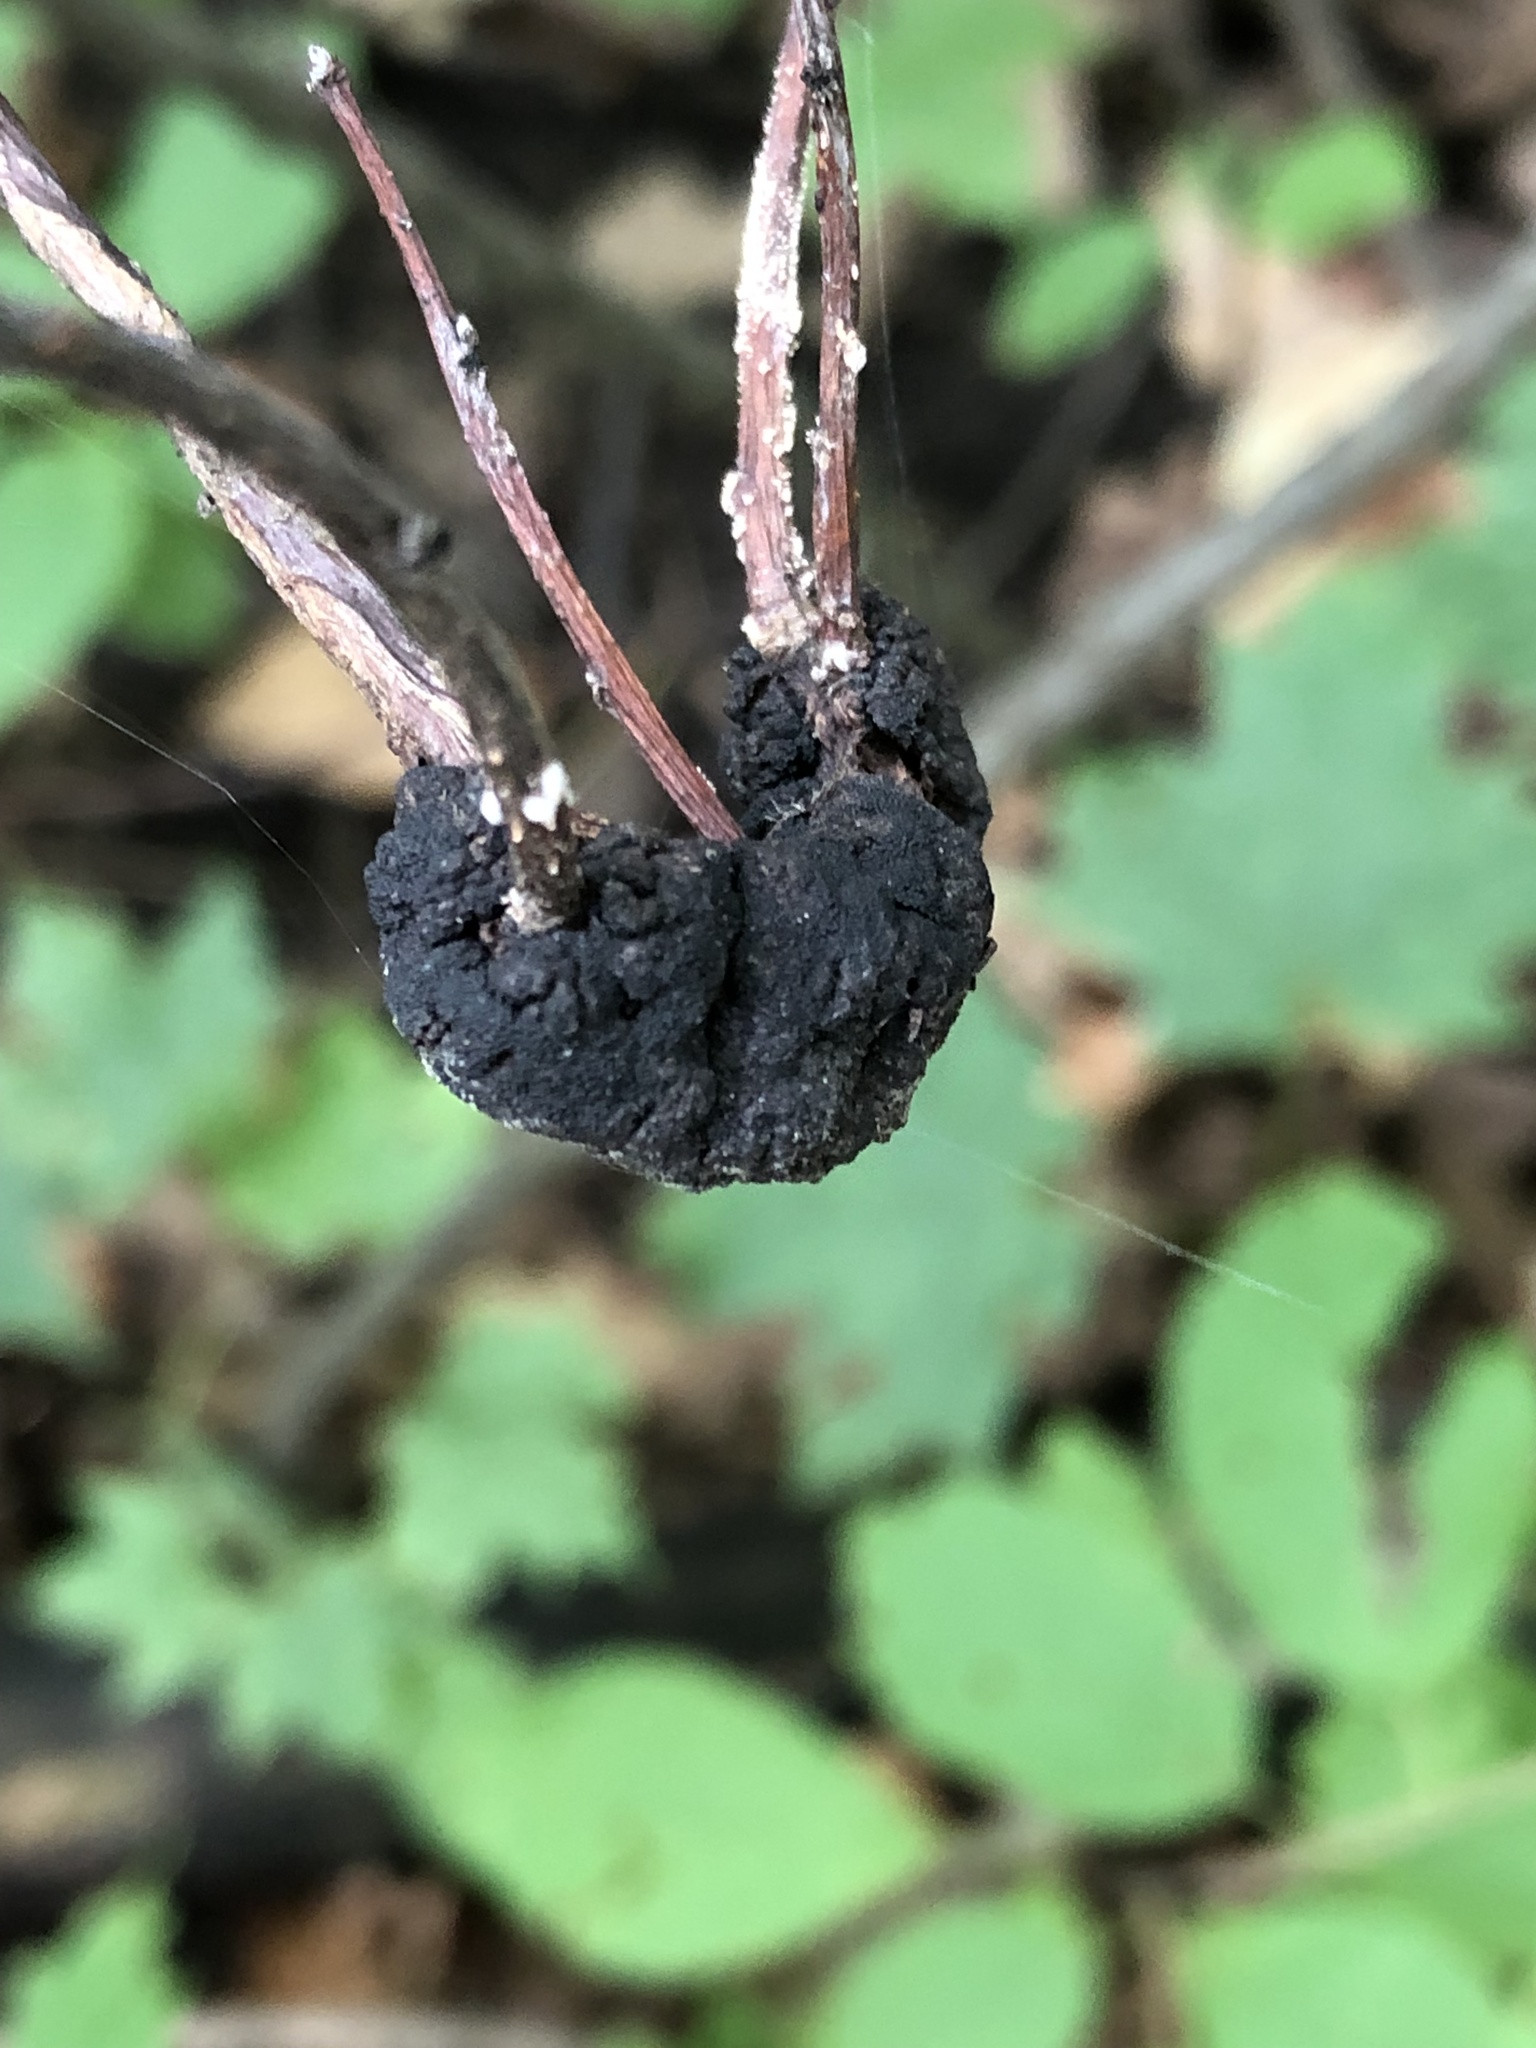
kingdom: Fungi
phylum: Ascomycota
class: Dothideomycetes
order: Venturiales
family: Venturiaceae
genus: Apiosporina
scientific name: Apiosporina morbosa
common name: Black knot
